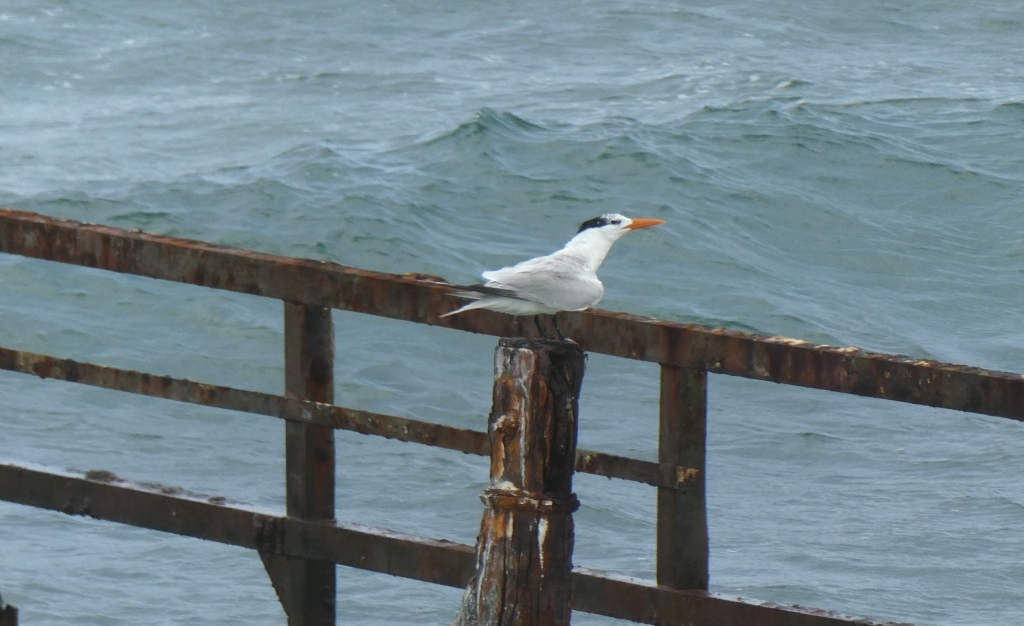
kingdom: Animalia
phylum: Chordata
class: Aves
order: Charadriiformes
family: Laridae
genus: Thalasseus
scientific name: Thalasseus maximus
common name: Royal tern
